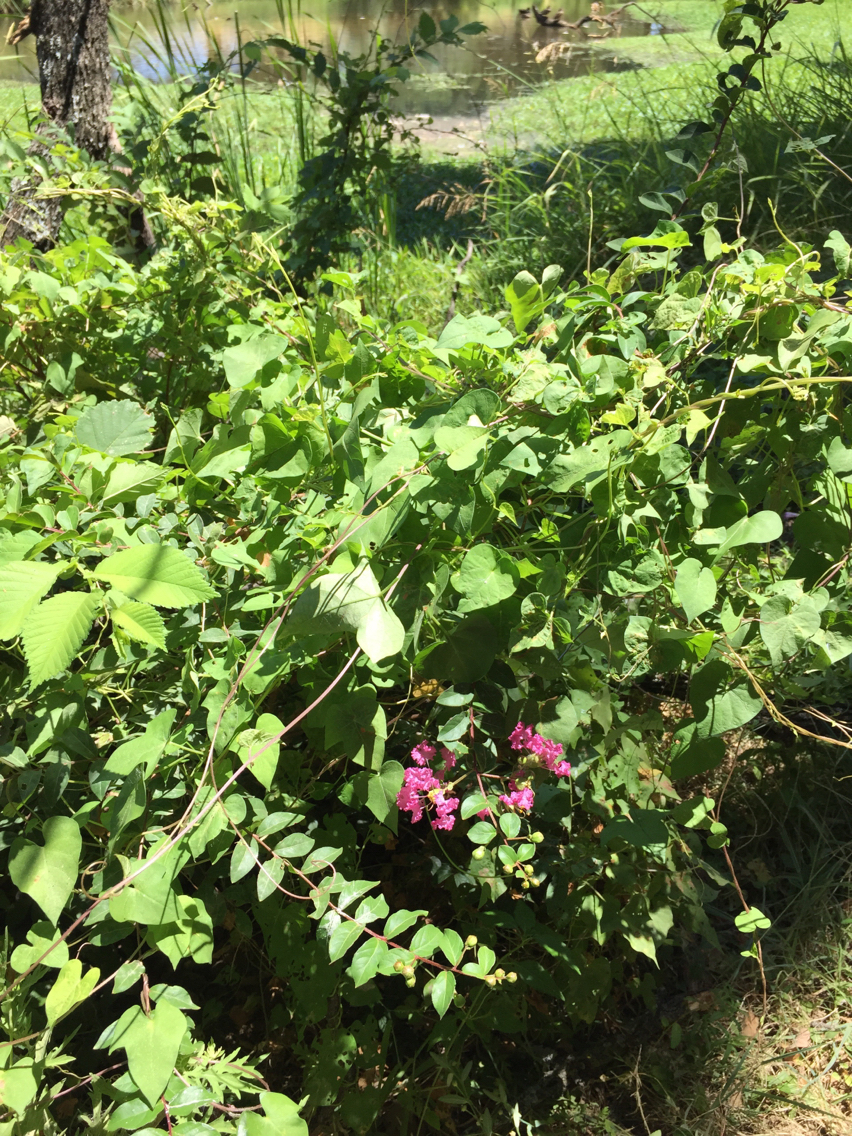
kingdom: Plantae
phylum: Tracheophyta
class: Magnoliopsida
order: Myrtales
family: Lythraceae
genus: Lagerstroemia
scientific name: Lagerstroemia indica
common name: Crape-myrtle
